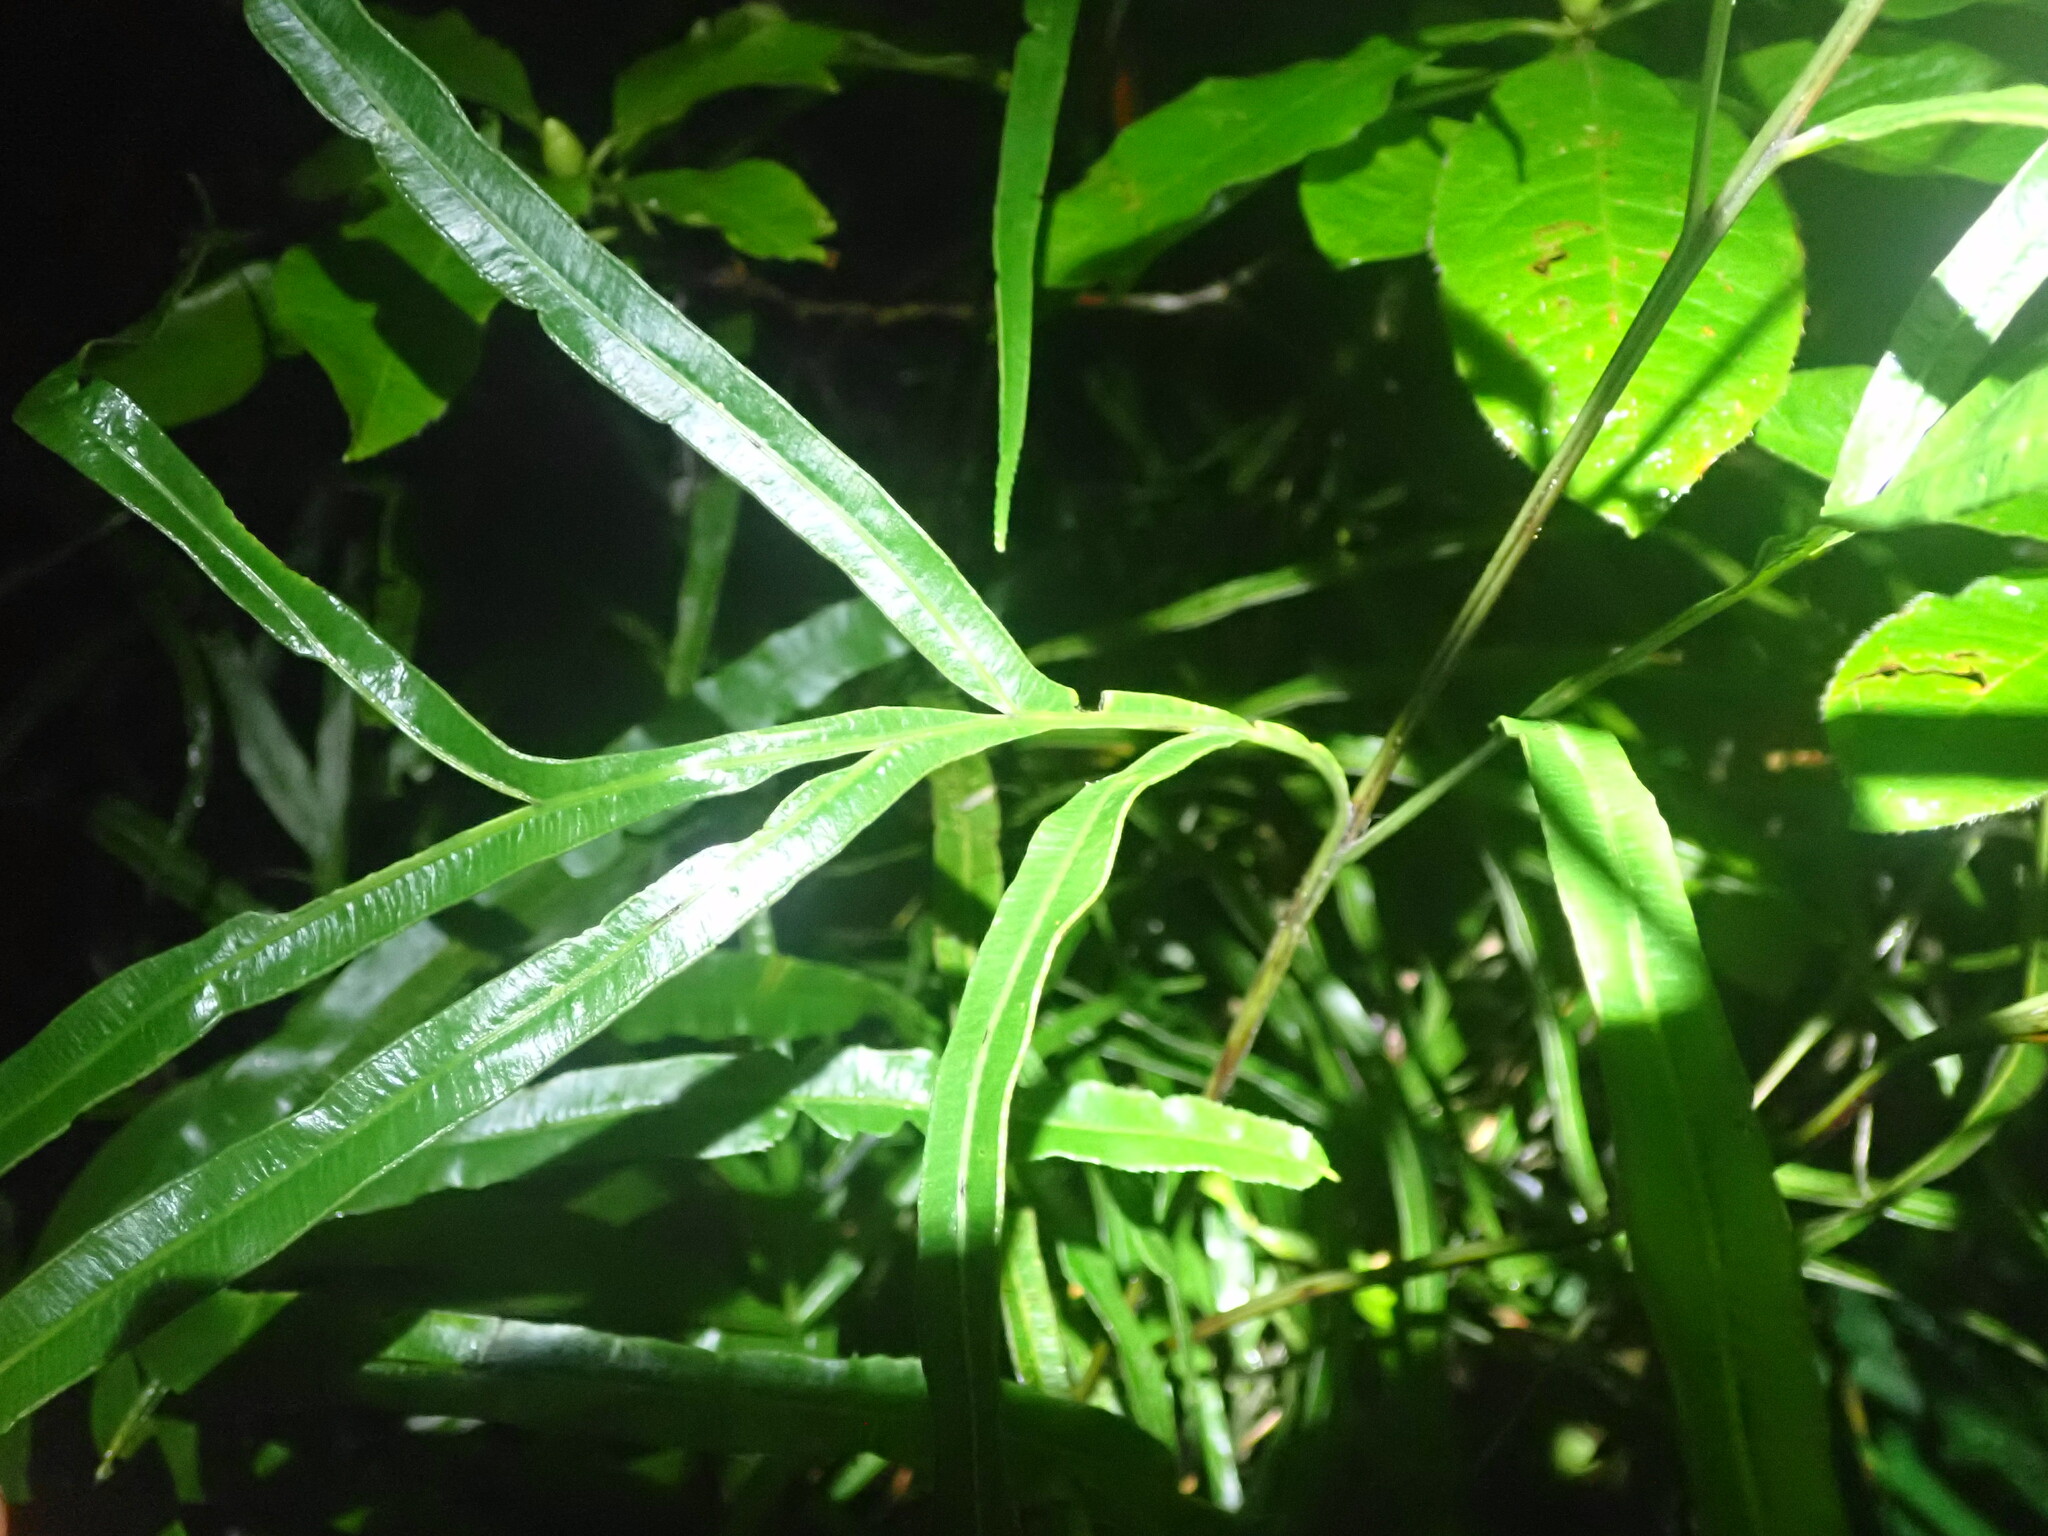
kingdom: Plantae
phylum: Tracheophyta
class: Polypodiopsida
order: Polypodiales
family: Pteridaceae
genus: Pteris
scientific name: Pteris cretica
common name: Ribbon fern
